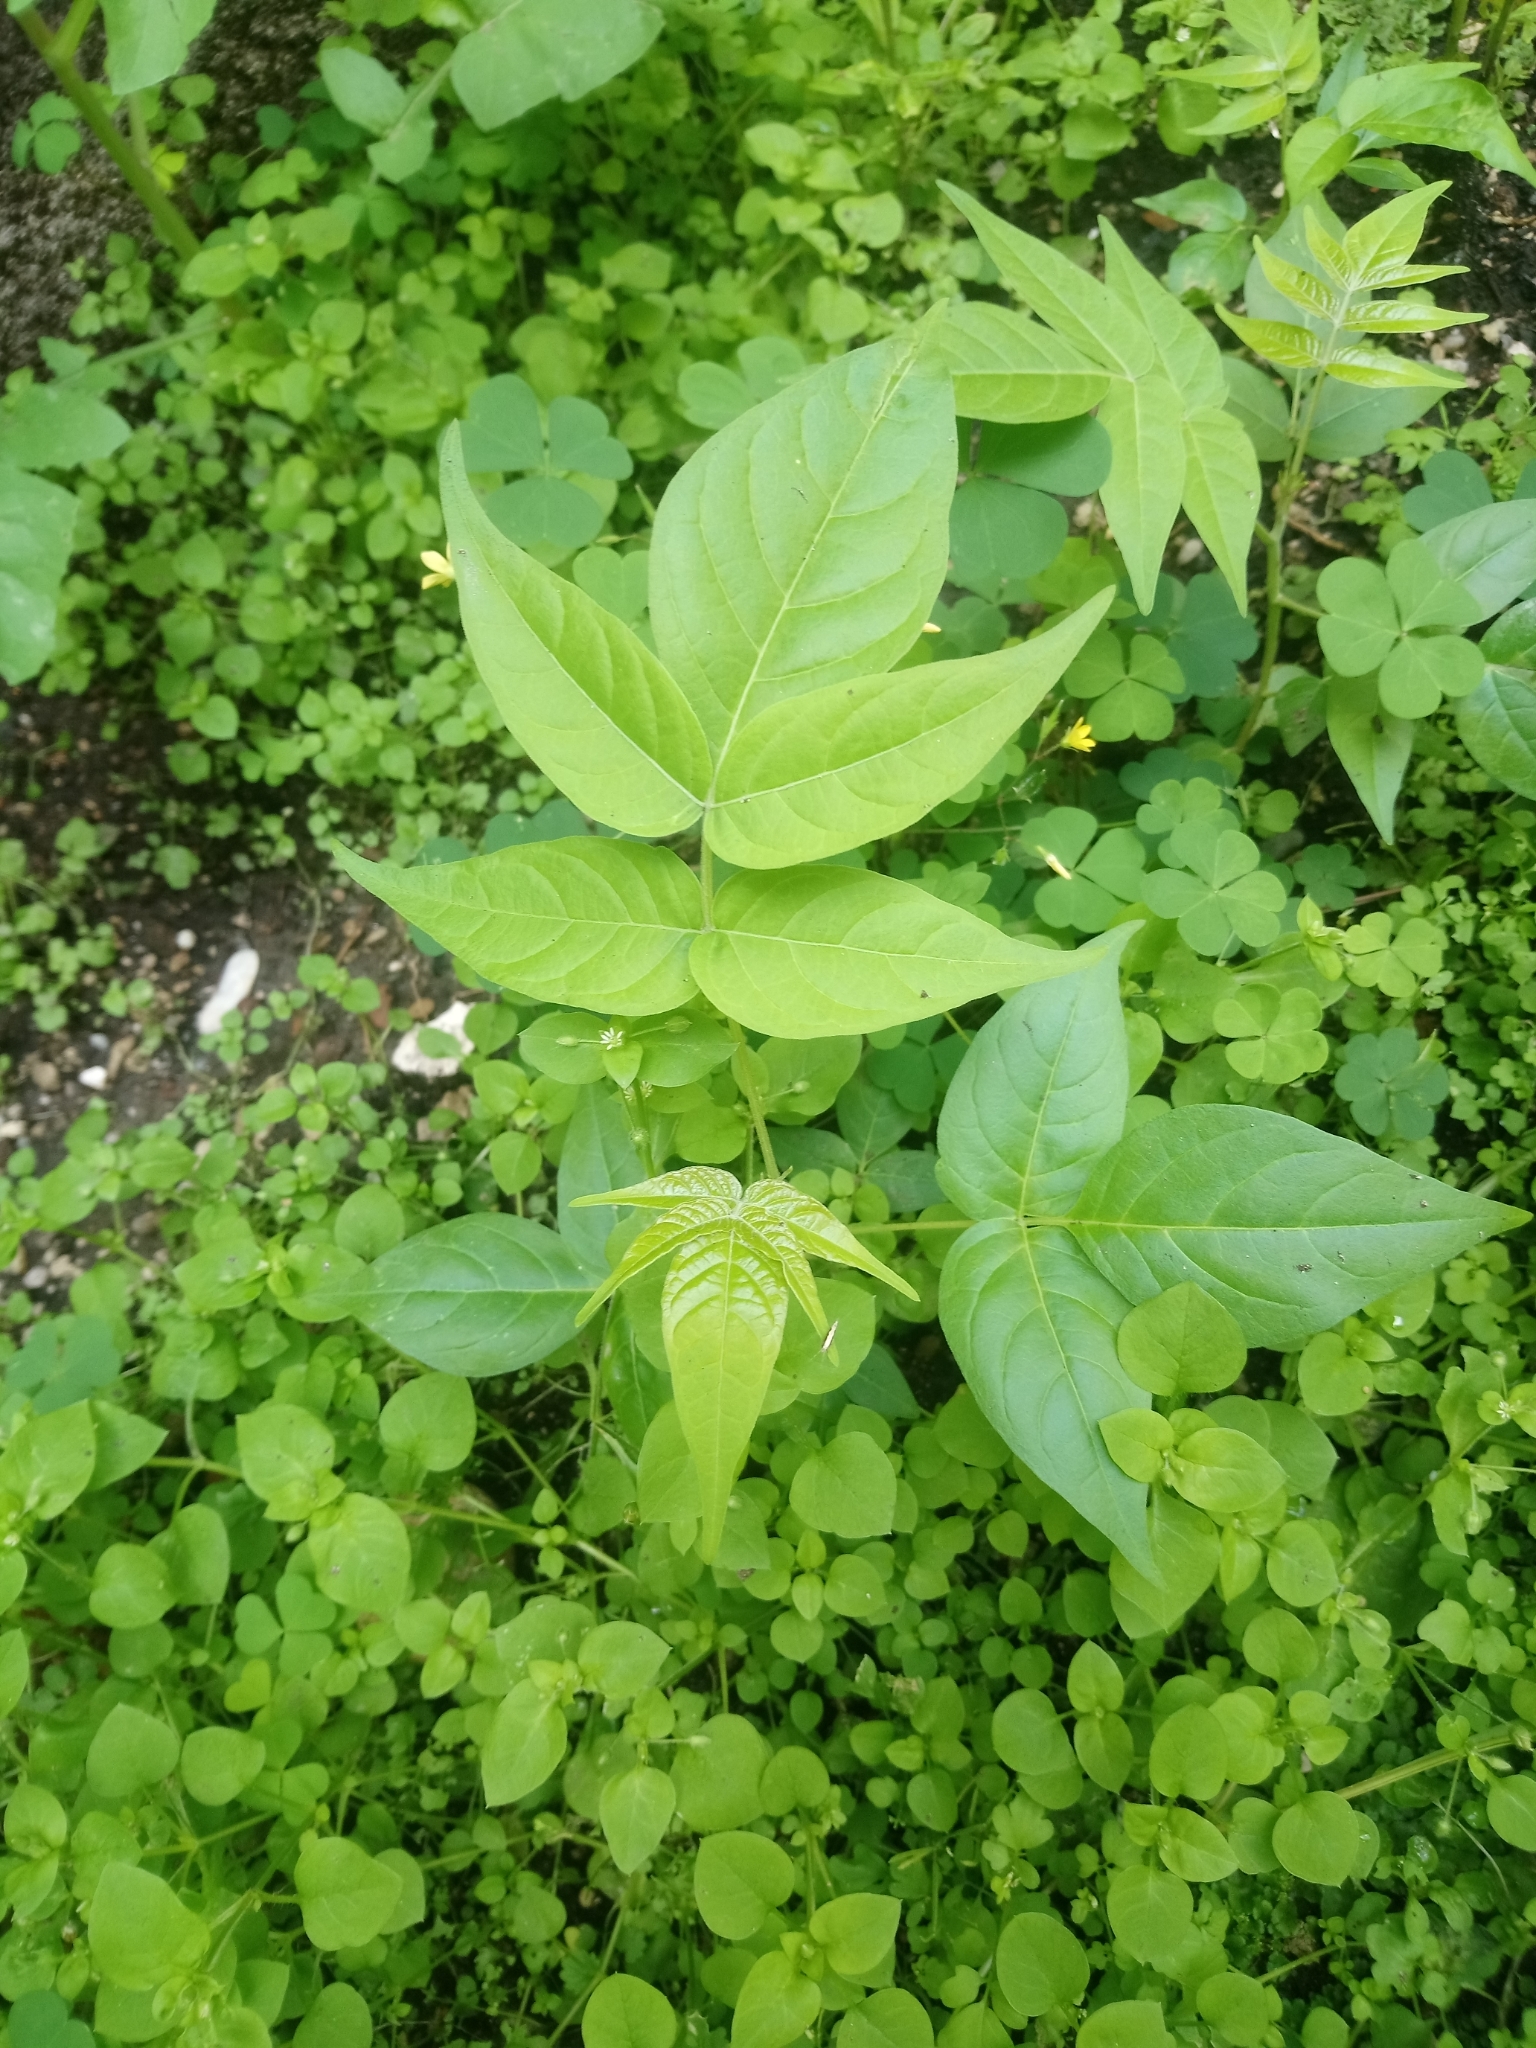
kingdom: Plantae
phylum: Tracheophyta
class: Magnoliopsida
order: Sapindales
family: Simaroubaceae
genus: Ailanthus
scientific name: Ailanthus altissima
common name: Tree-of-heaven
